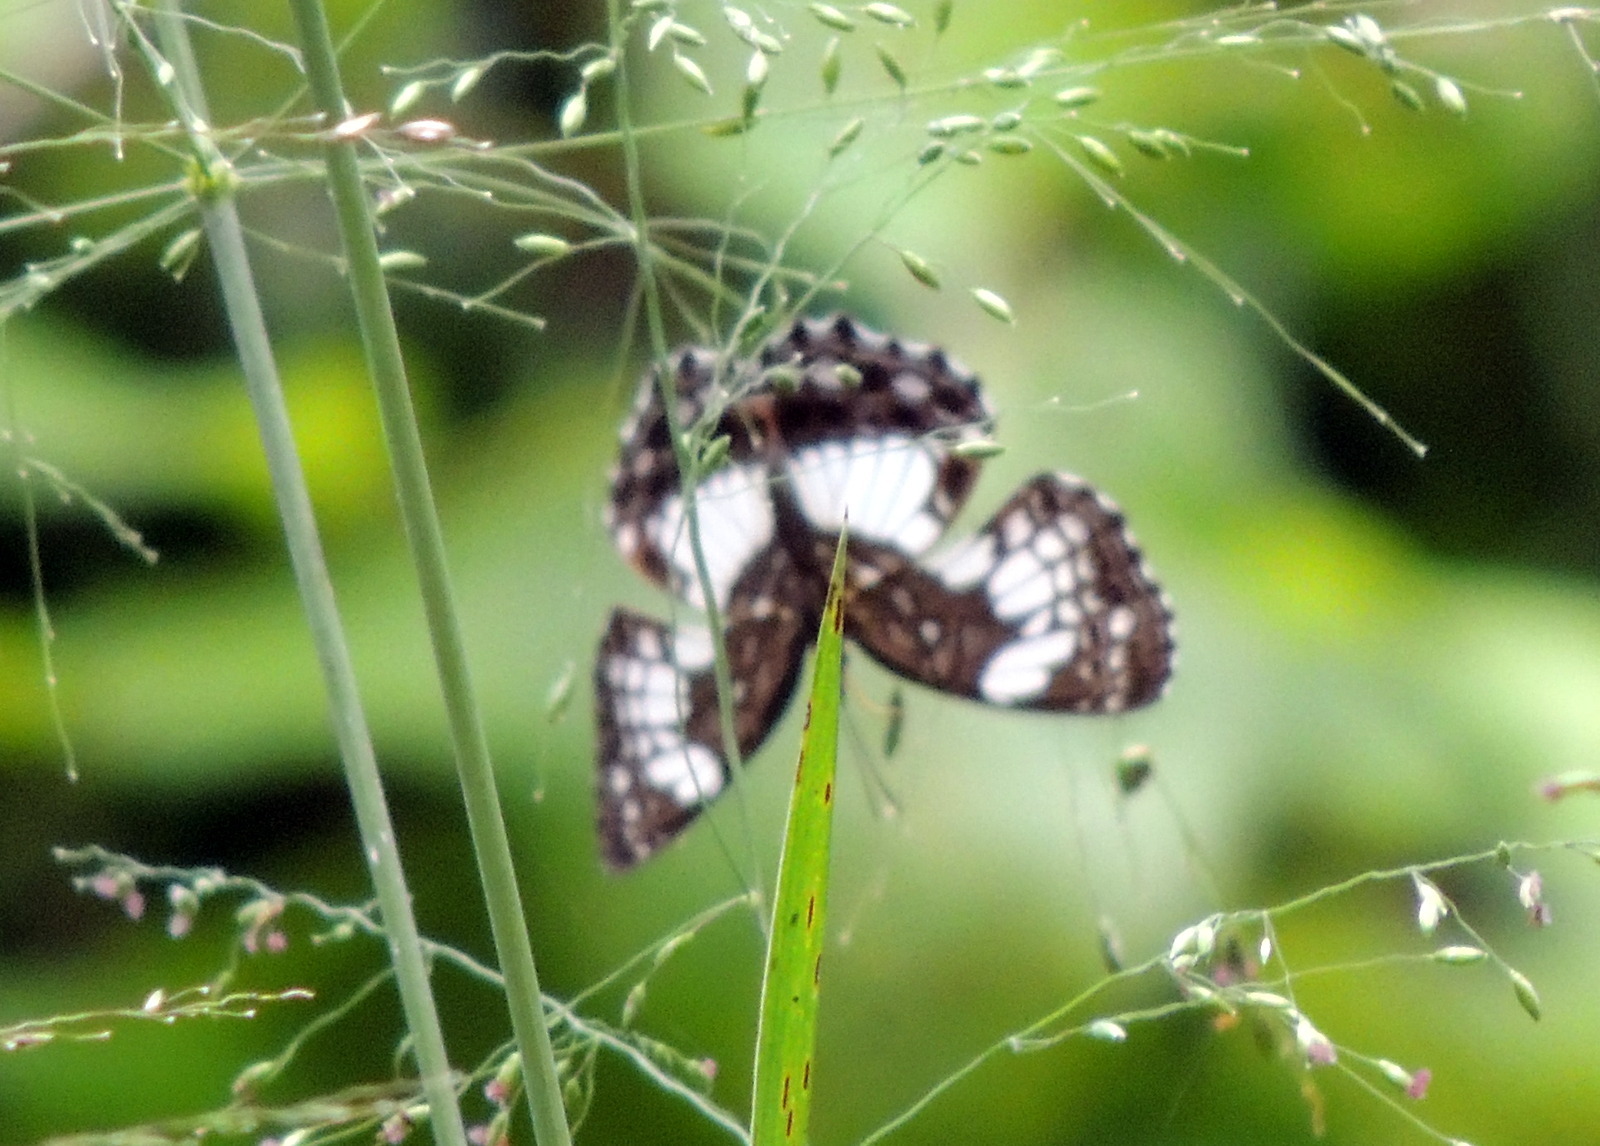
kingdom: Animalia
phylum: Arthropoda
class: Insecta
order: Lepidoptera
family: Nymphalidae
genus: Neptidopsis
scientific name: Neptidopsis ophione
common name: Scalloped false sailor
